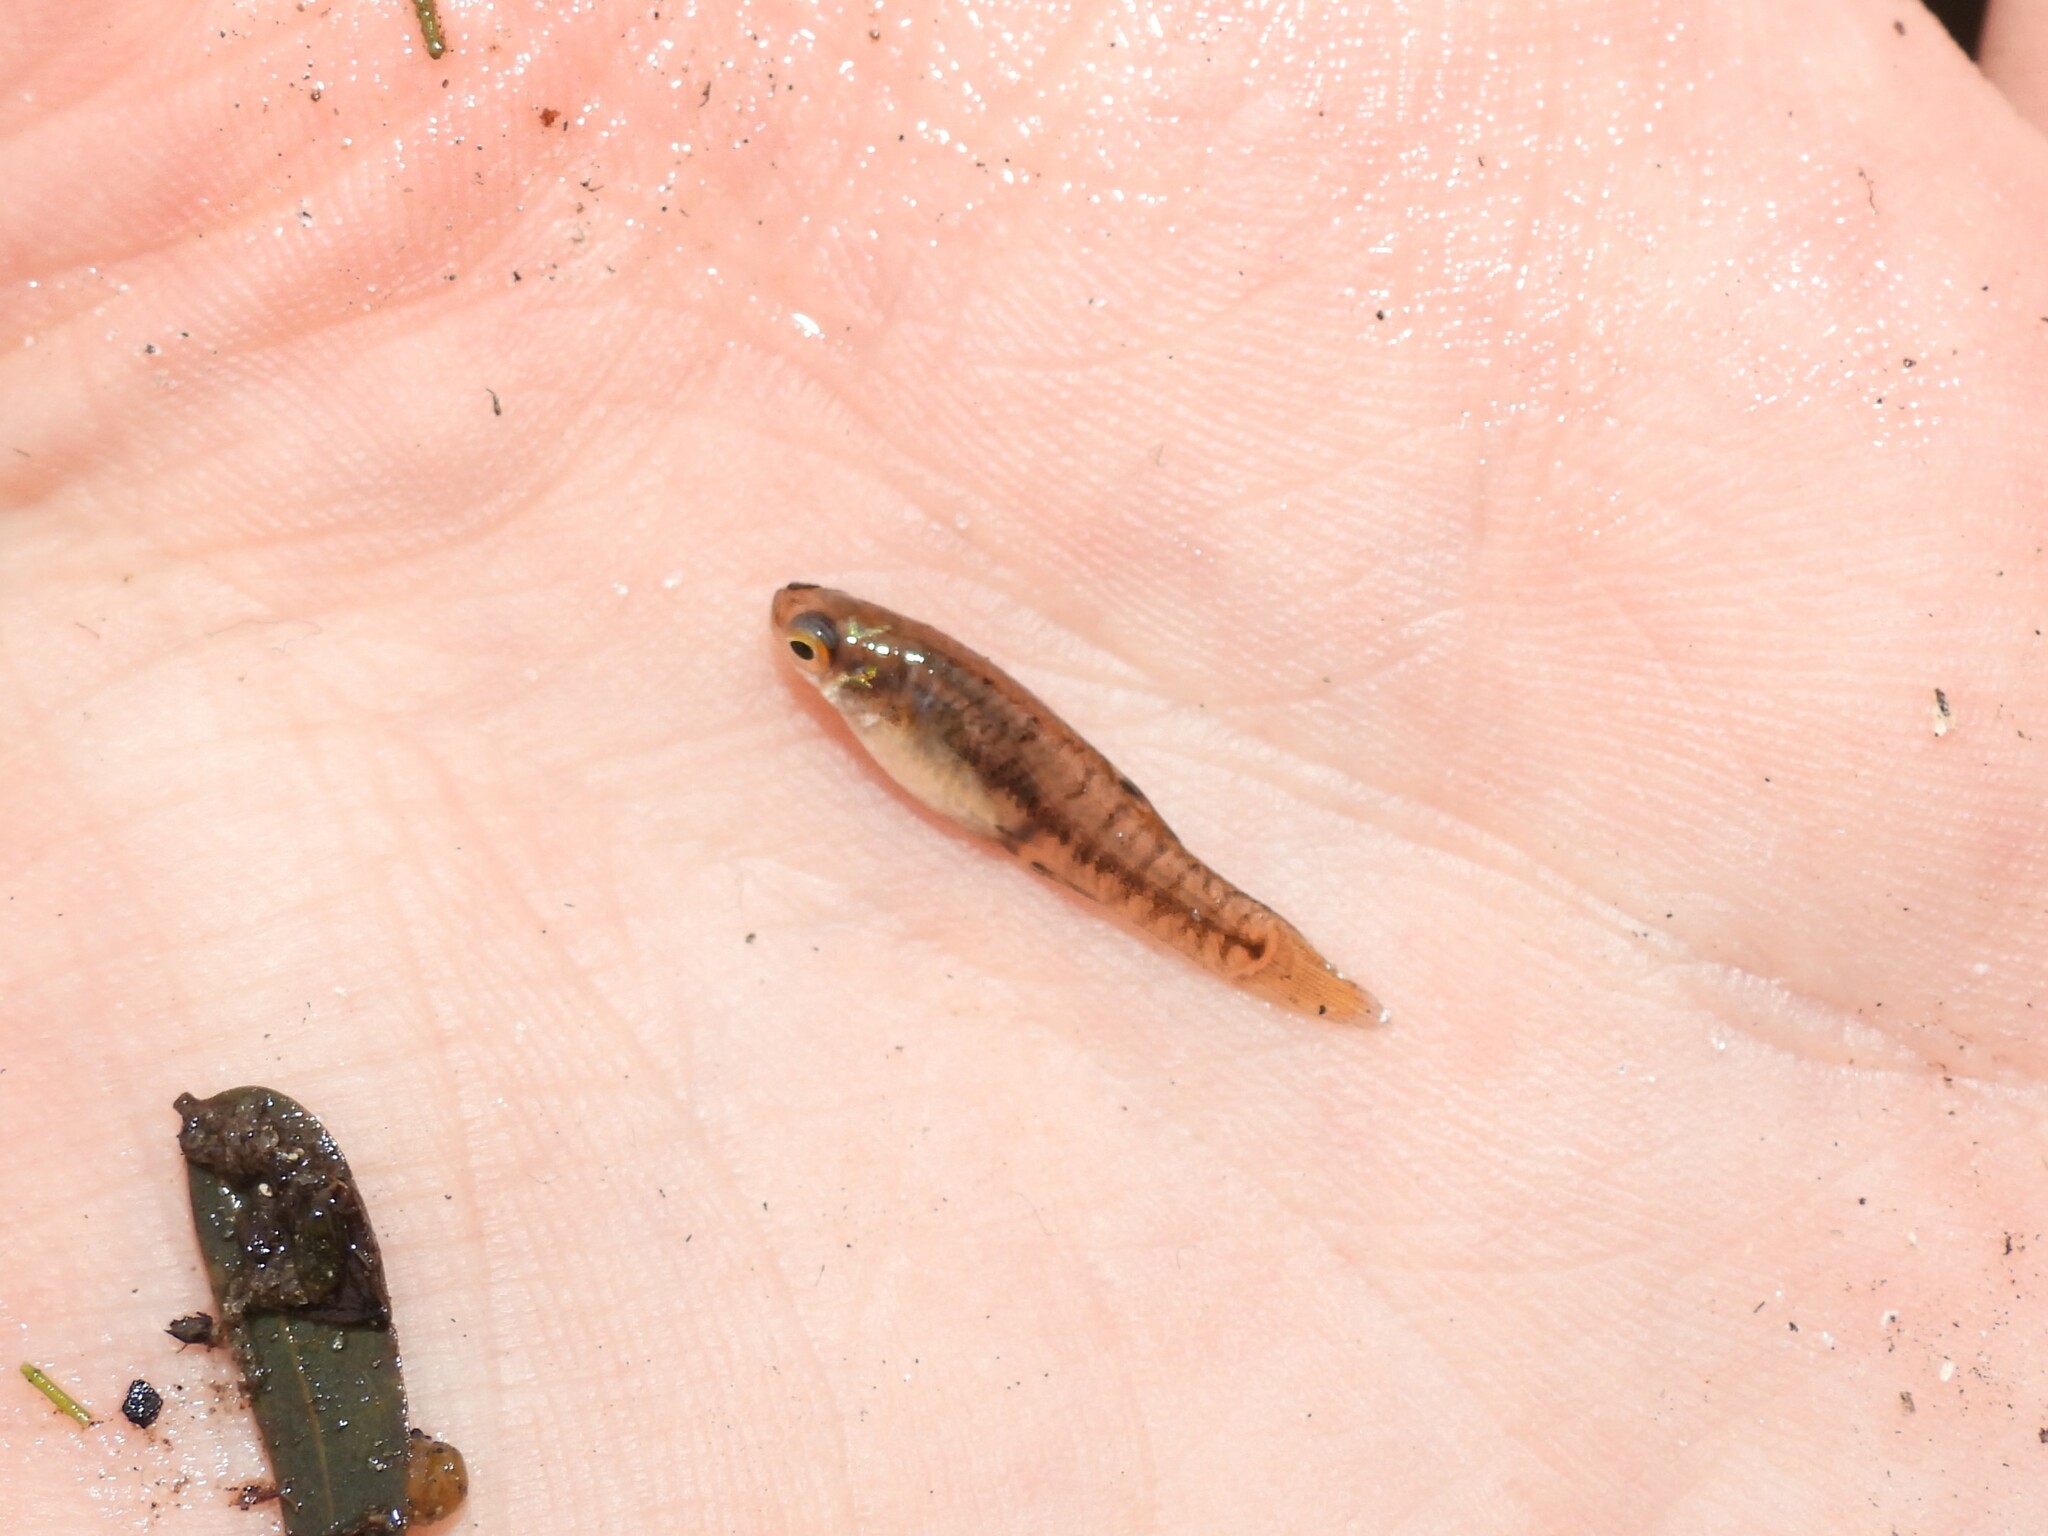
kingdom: Animalia
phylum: Chordata
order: Cyprinodontiformes
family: Poeciliidae
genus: Heterandria
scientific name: Heterandria formosa
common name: Least killifish
